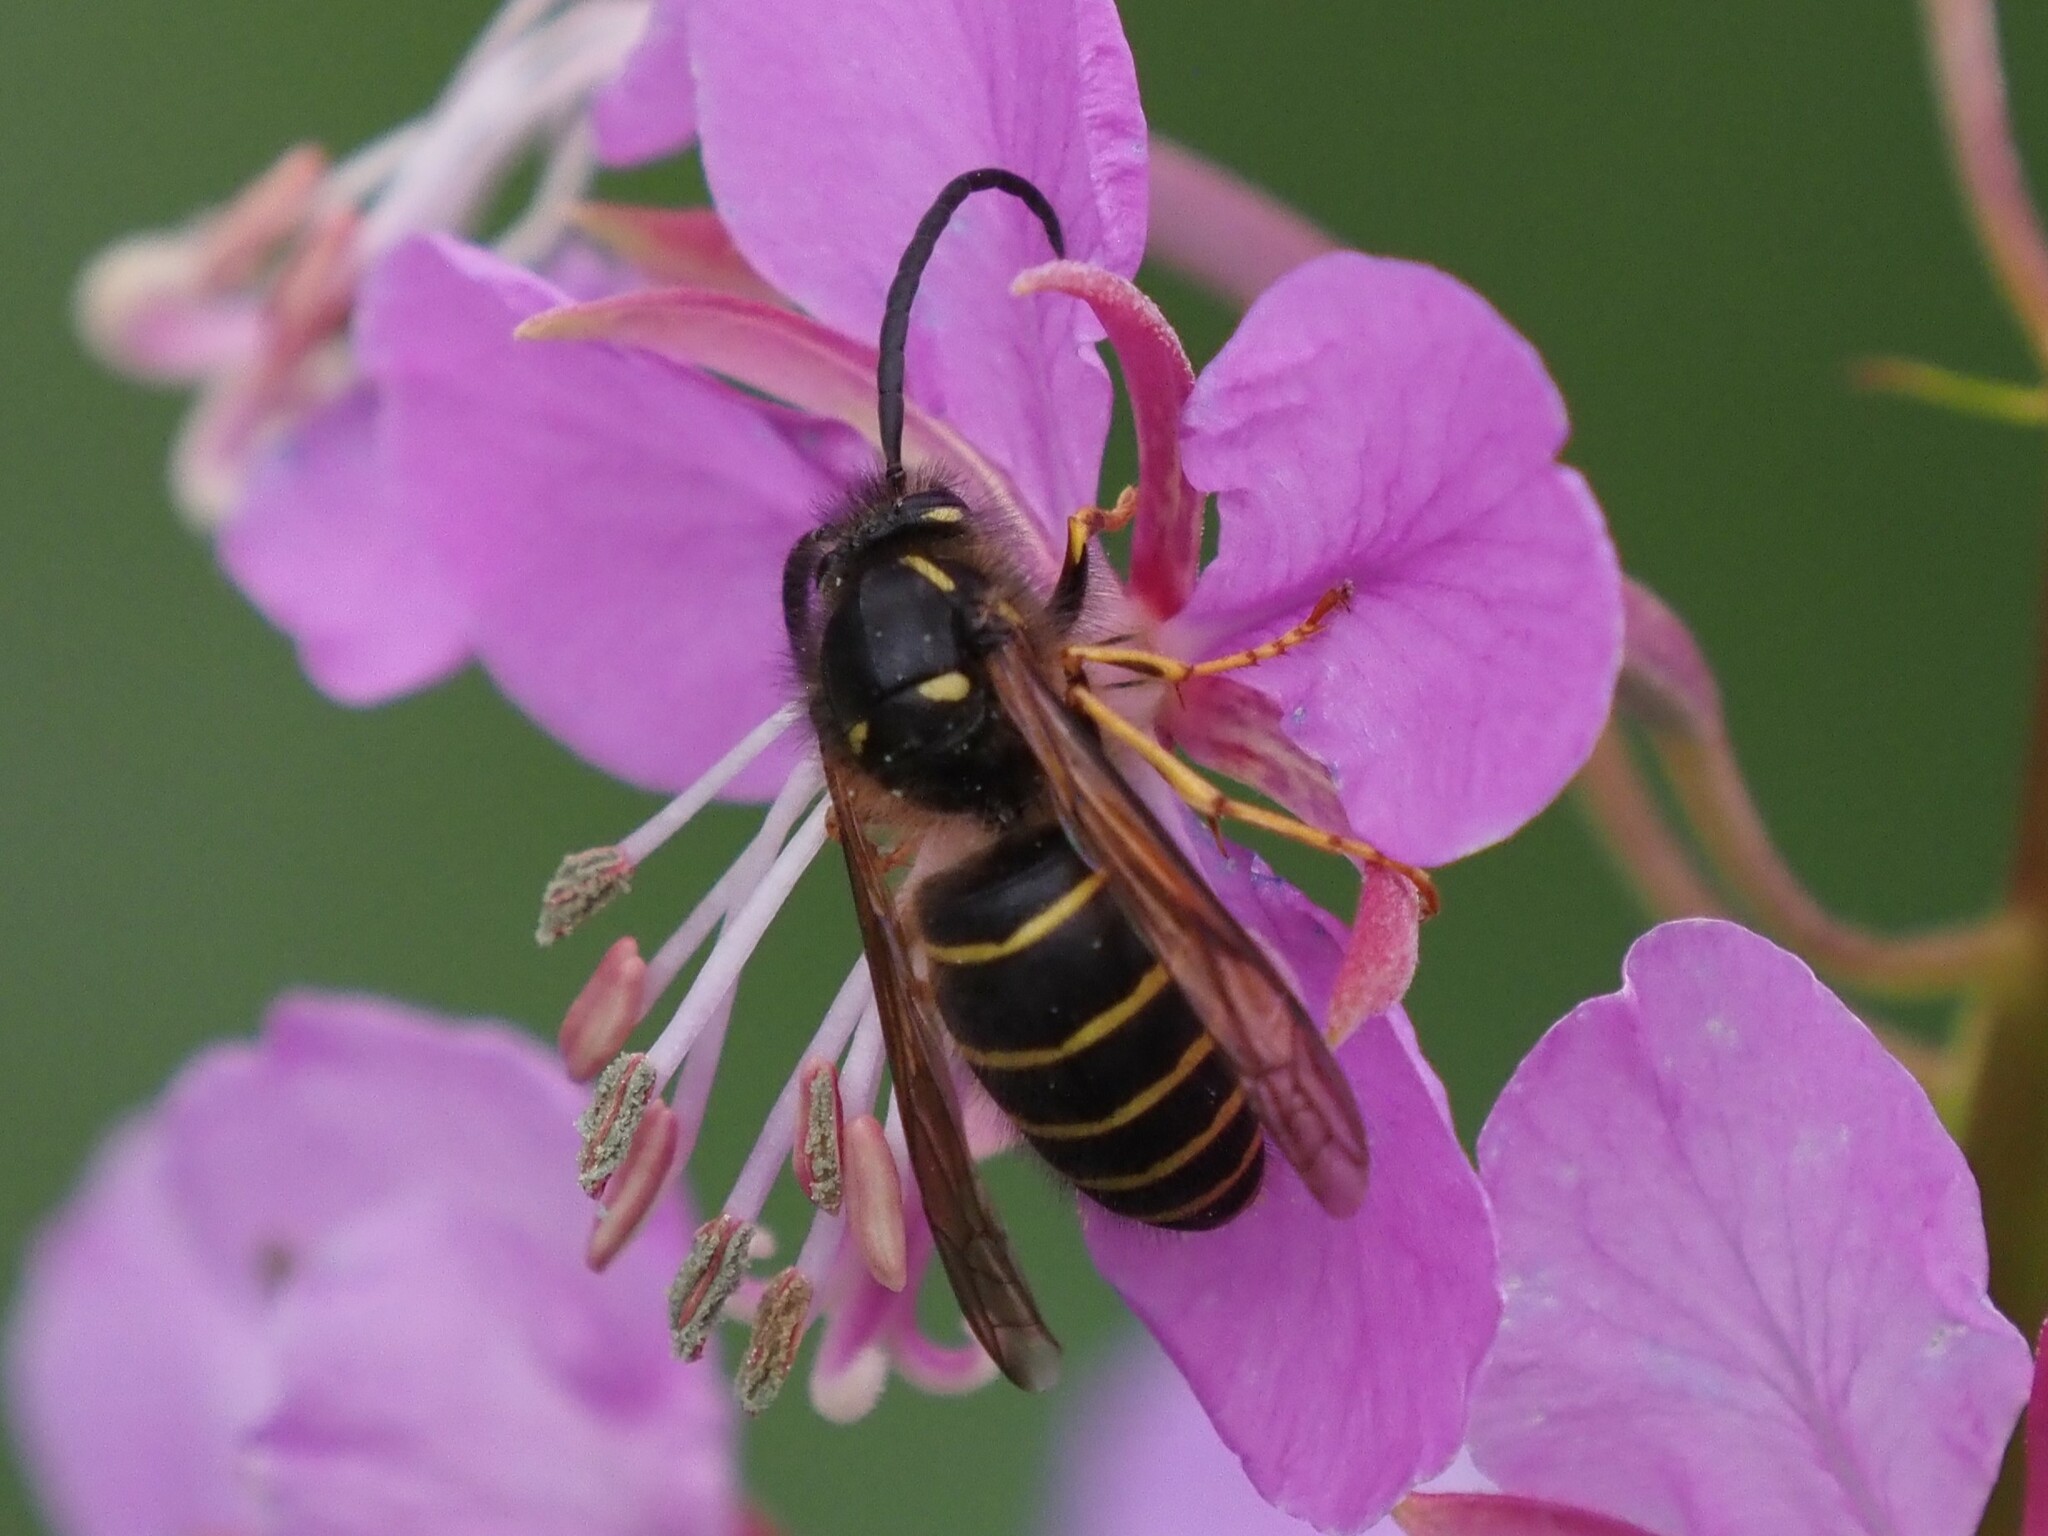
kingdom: Animalia
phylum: Arthropoda
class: Insecta
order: Hymenoptera
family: Vespidae
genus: Dolichovespula
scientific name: Dolichovespula norvegicoides
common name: Northern aerial yellowjacket
